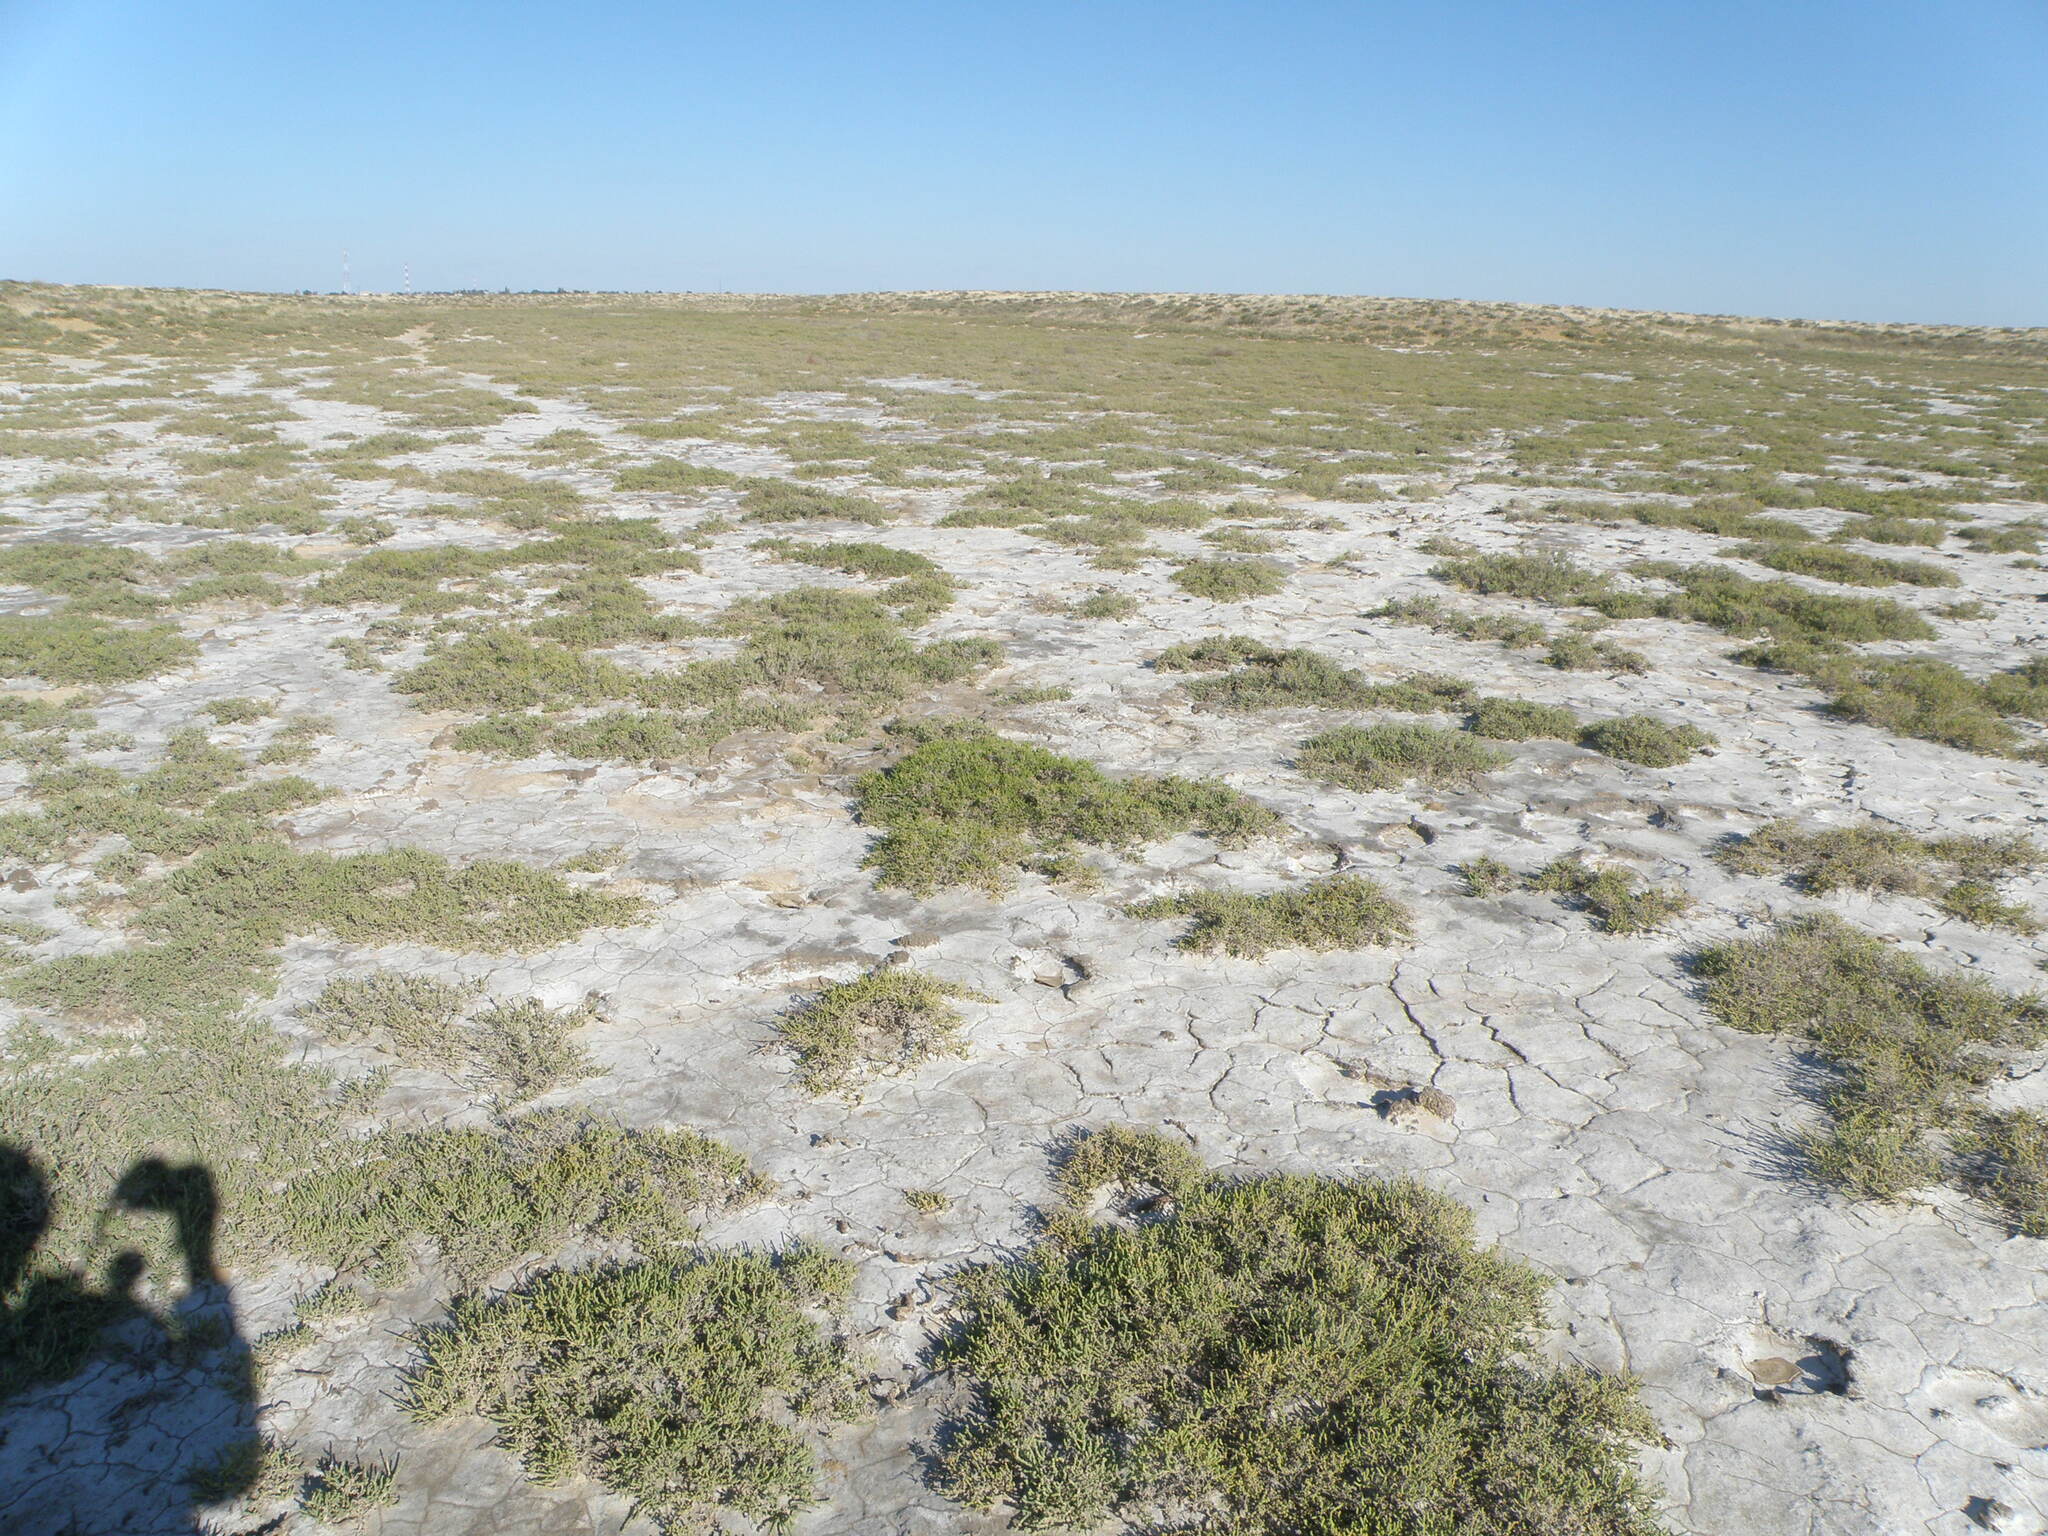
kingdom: Plantae
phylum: Tracheophyta
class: Magnoliopsida
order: Caryophyllales
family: Amaranthaceae
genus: Halocnemum
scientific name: Halocnemum strobilaceum
